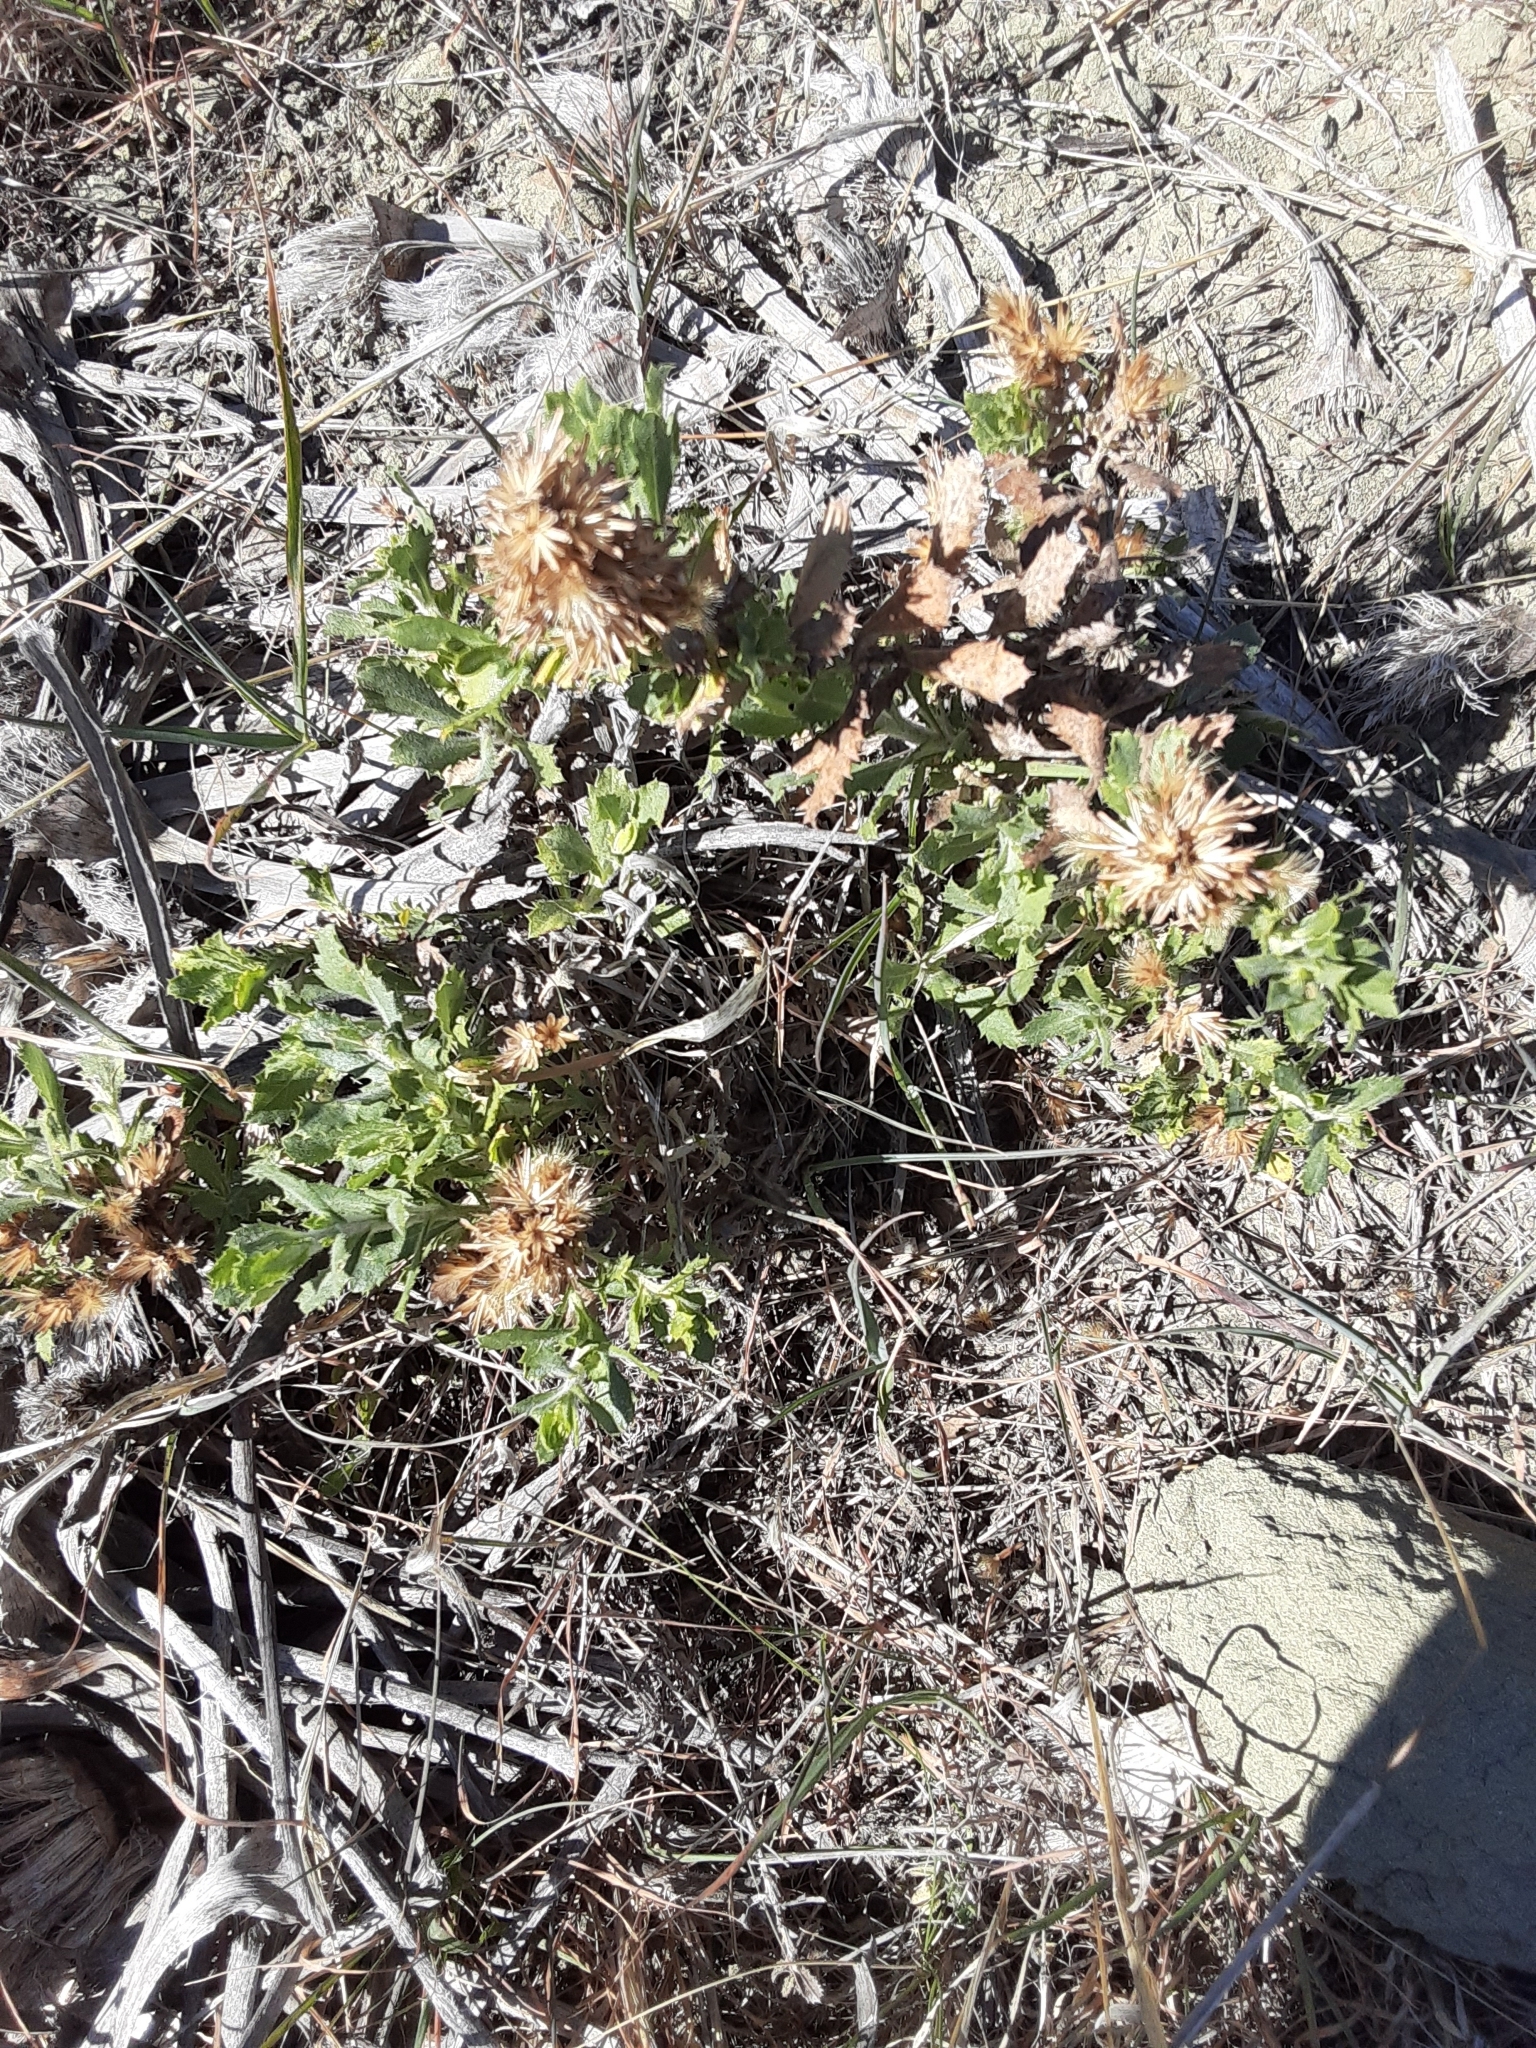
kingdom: Plantae
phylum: Tracheophyta
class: Magnoliopsida
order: Asterales
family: Asteraceae
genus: Hazardia
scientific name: Hazardia squarrosa
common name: Saw-tooth goldenbush
